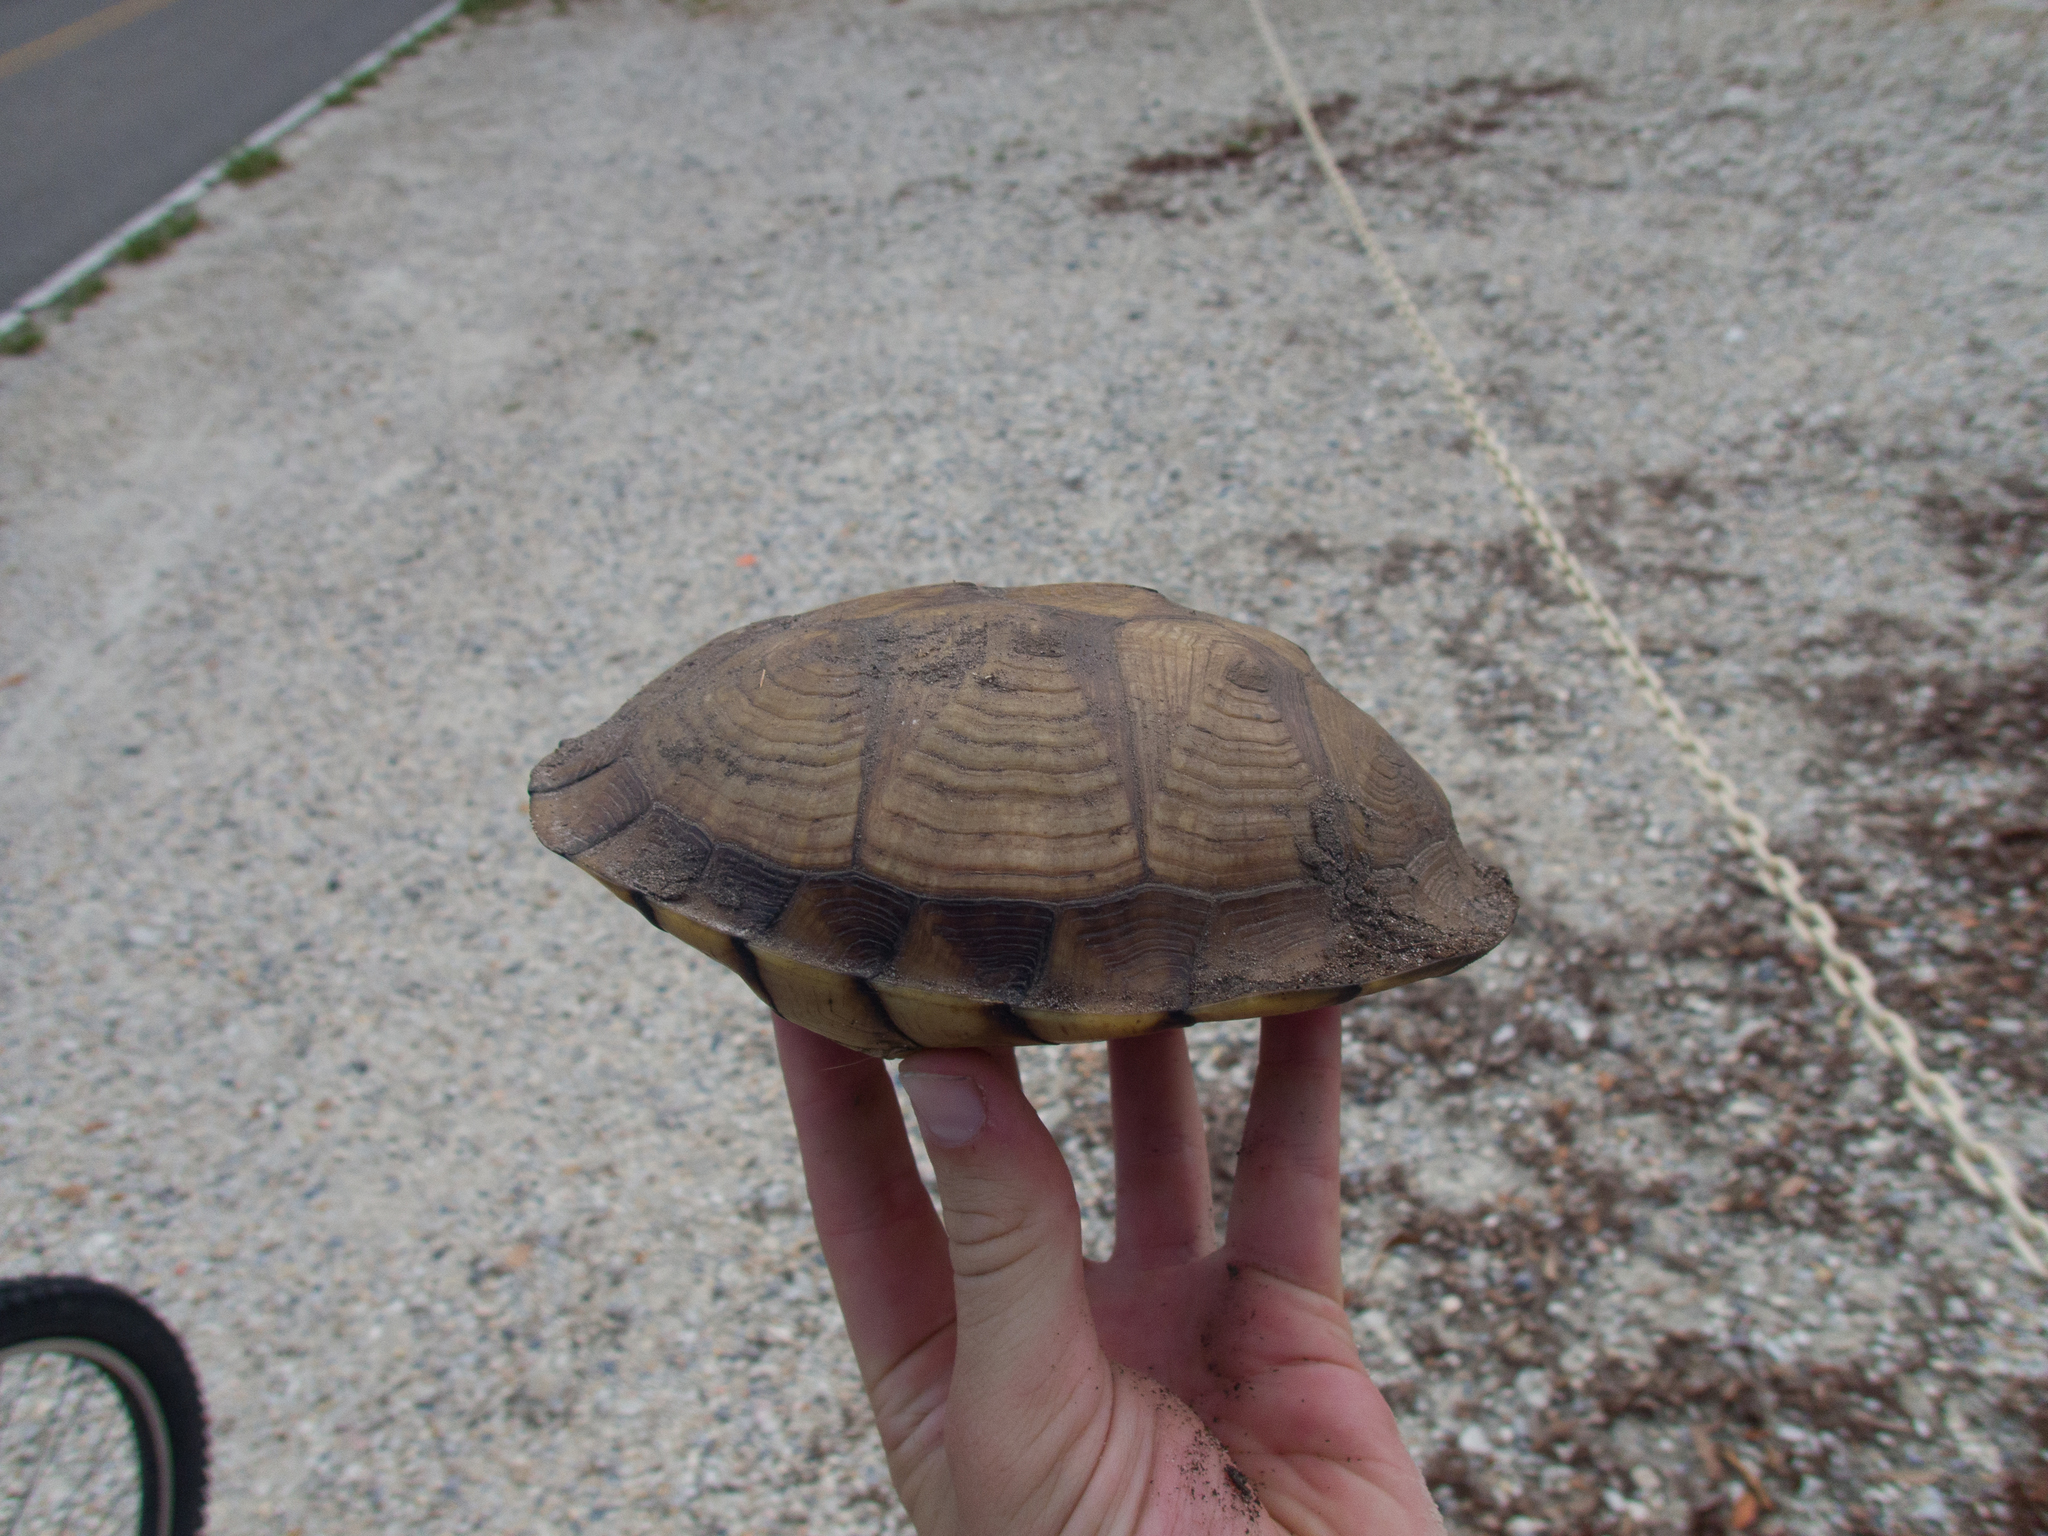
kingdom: Animalia
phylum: Chordata
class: Testudines
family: Emydidae
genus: Terrapene
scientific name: Terrapene carolina
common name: Common box turtle
